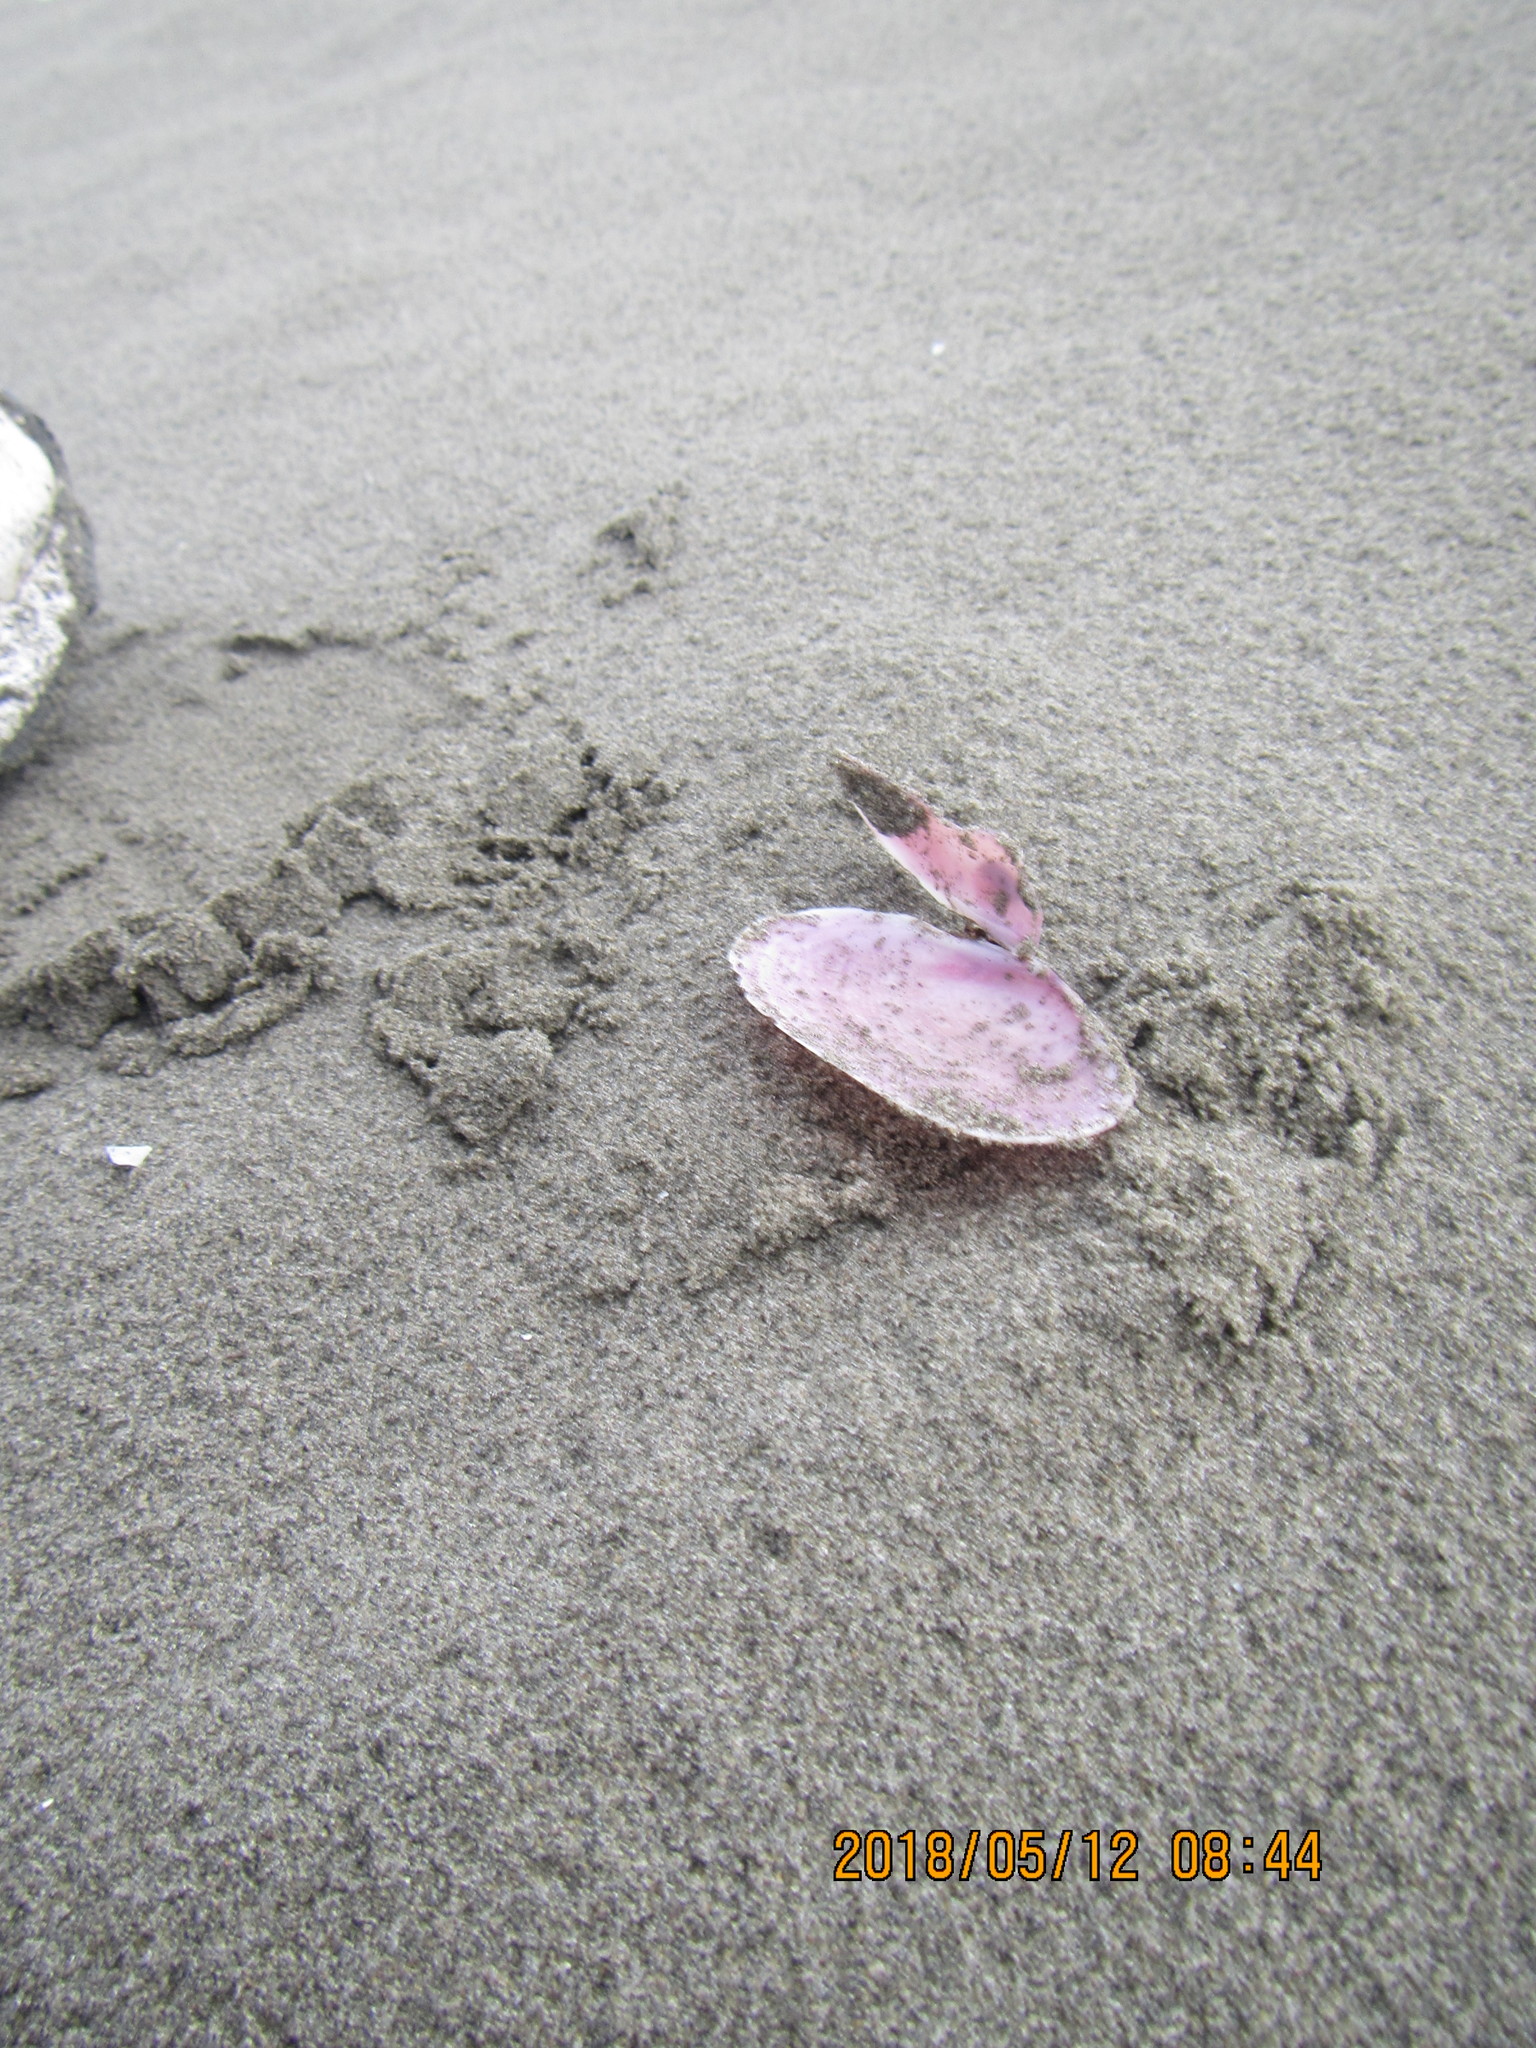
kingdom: Animalia
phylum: Mollusca
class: Bivalvia
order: Cardiida
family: Psammobiidae
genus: Gari
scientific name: Gari lineolata
